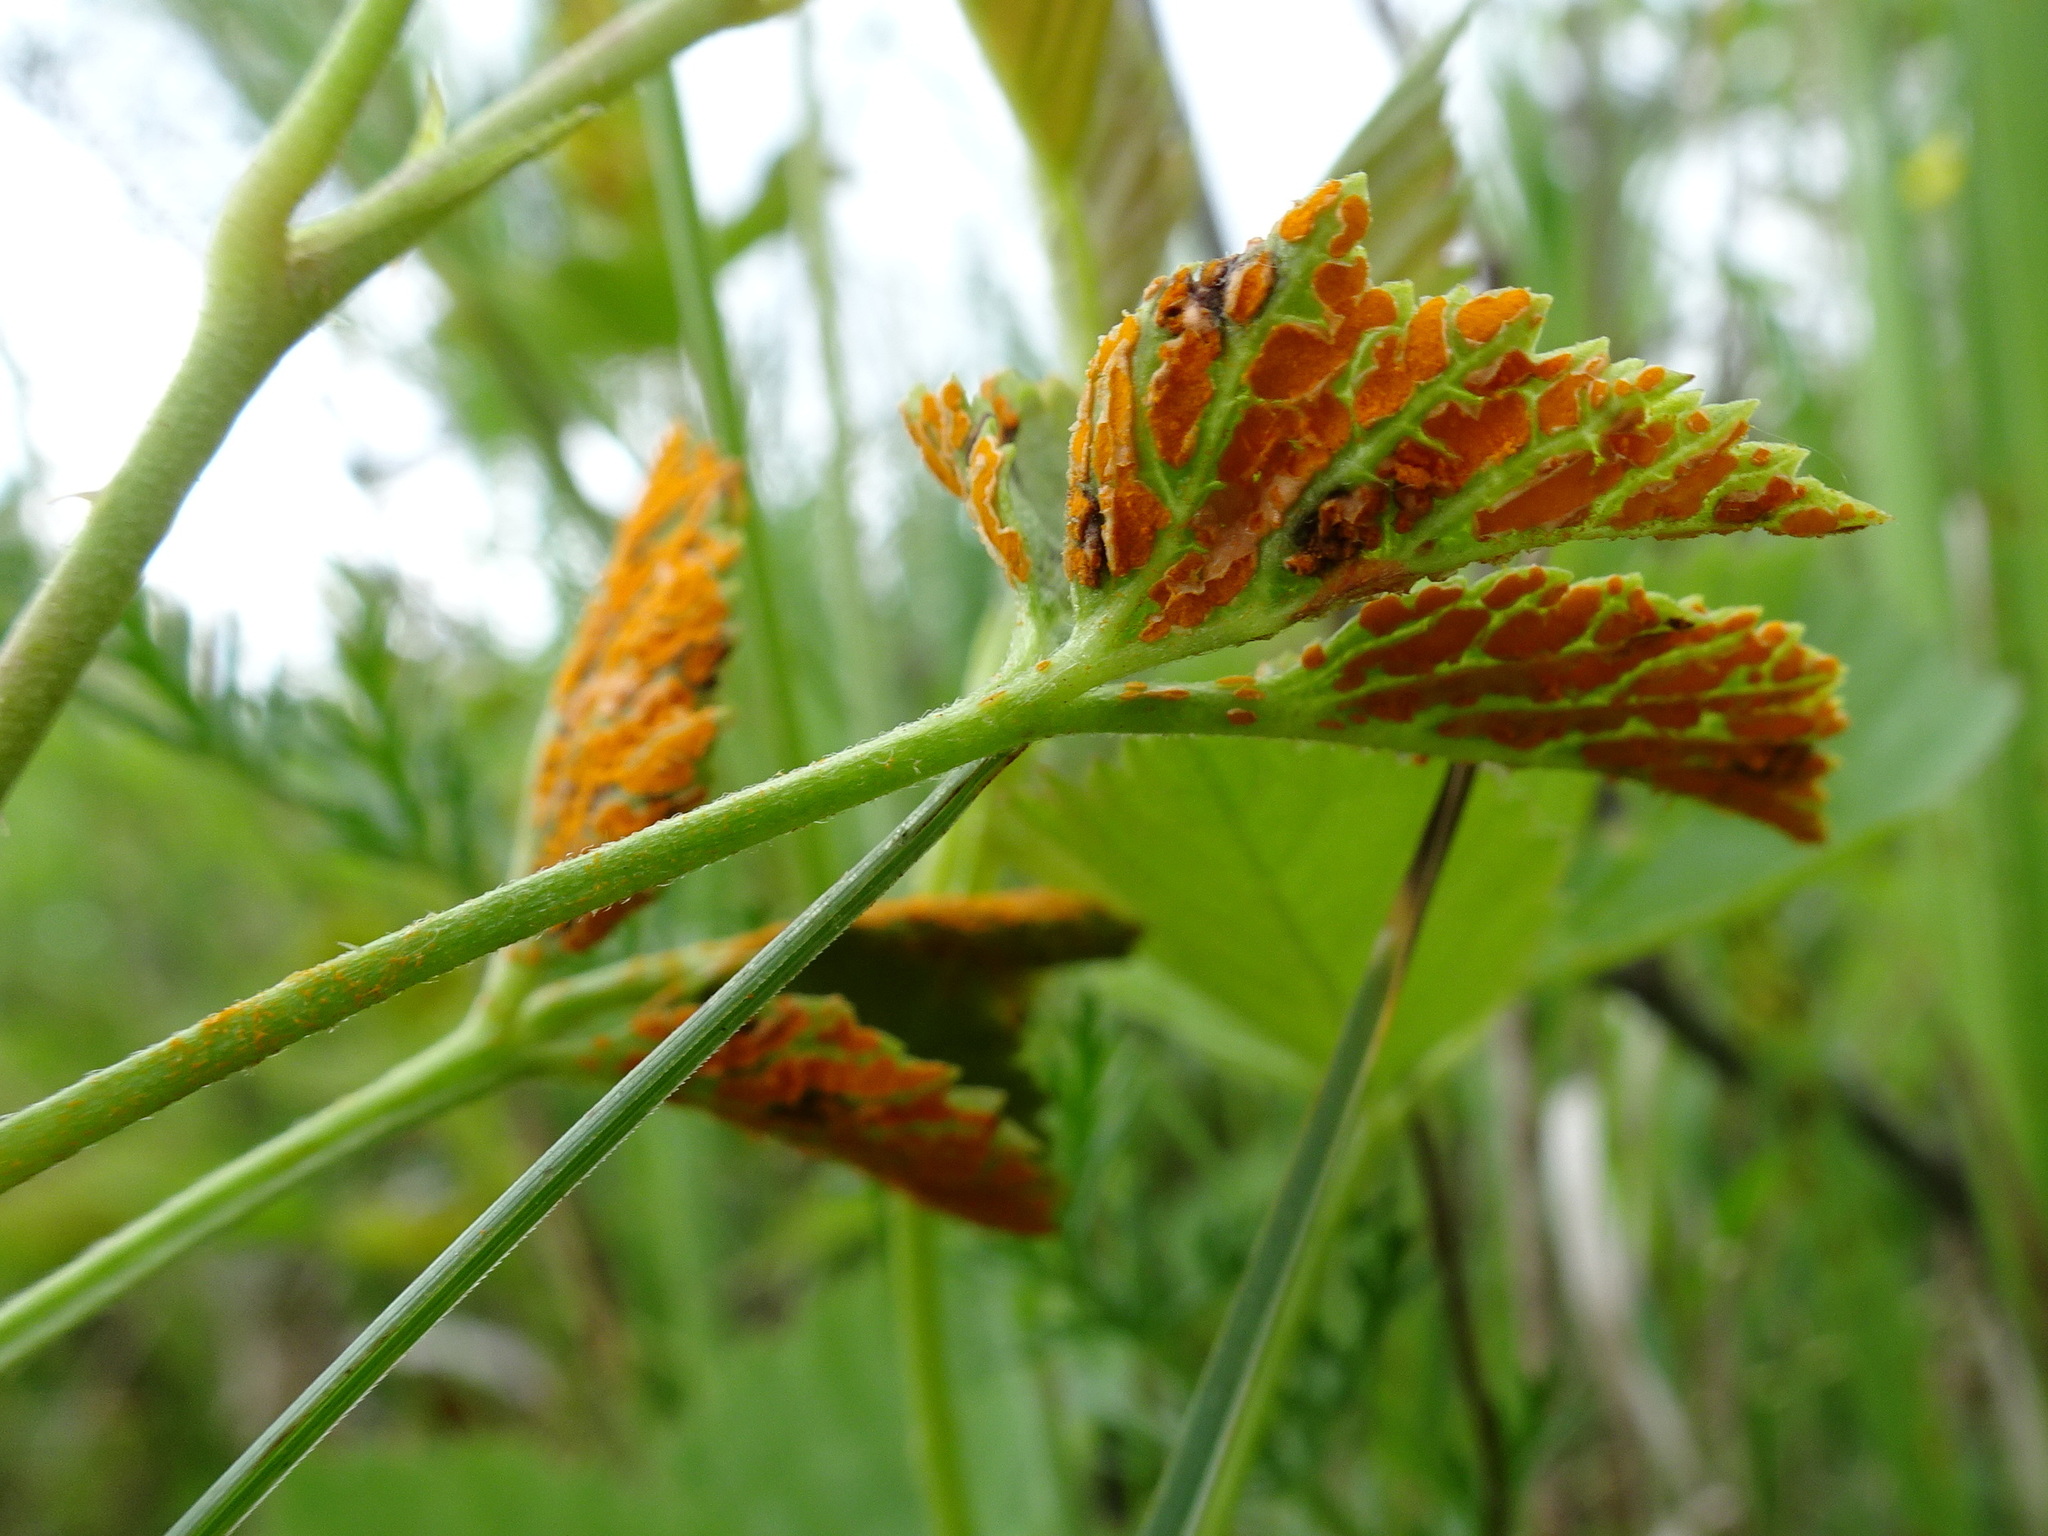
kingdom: Fungi
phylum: Basidiomycota
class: Pucciniomycetes
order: Pucciniales
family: Phragmidiaceae
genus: Arthuriomyces
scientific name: Arthuriomyces peckianus
